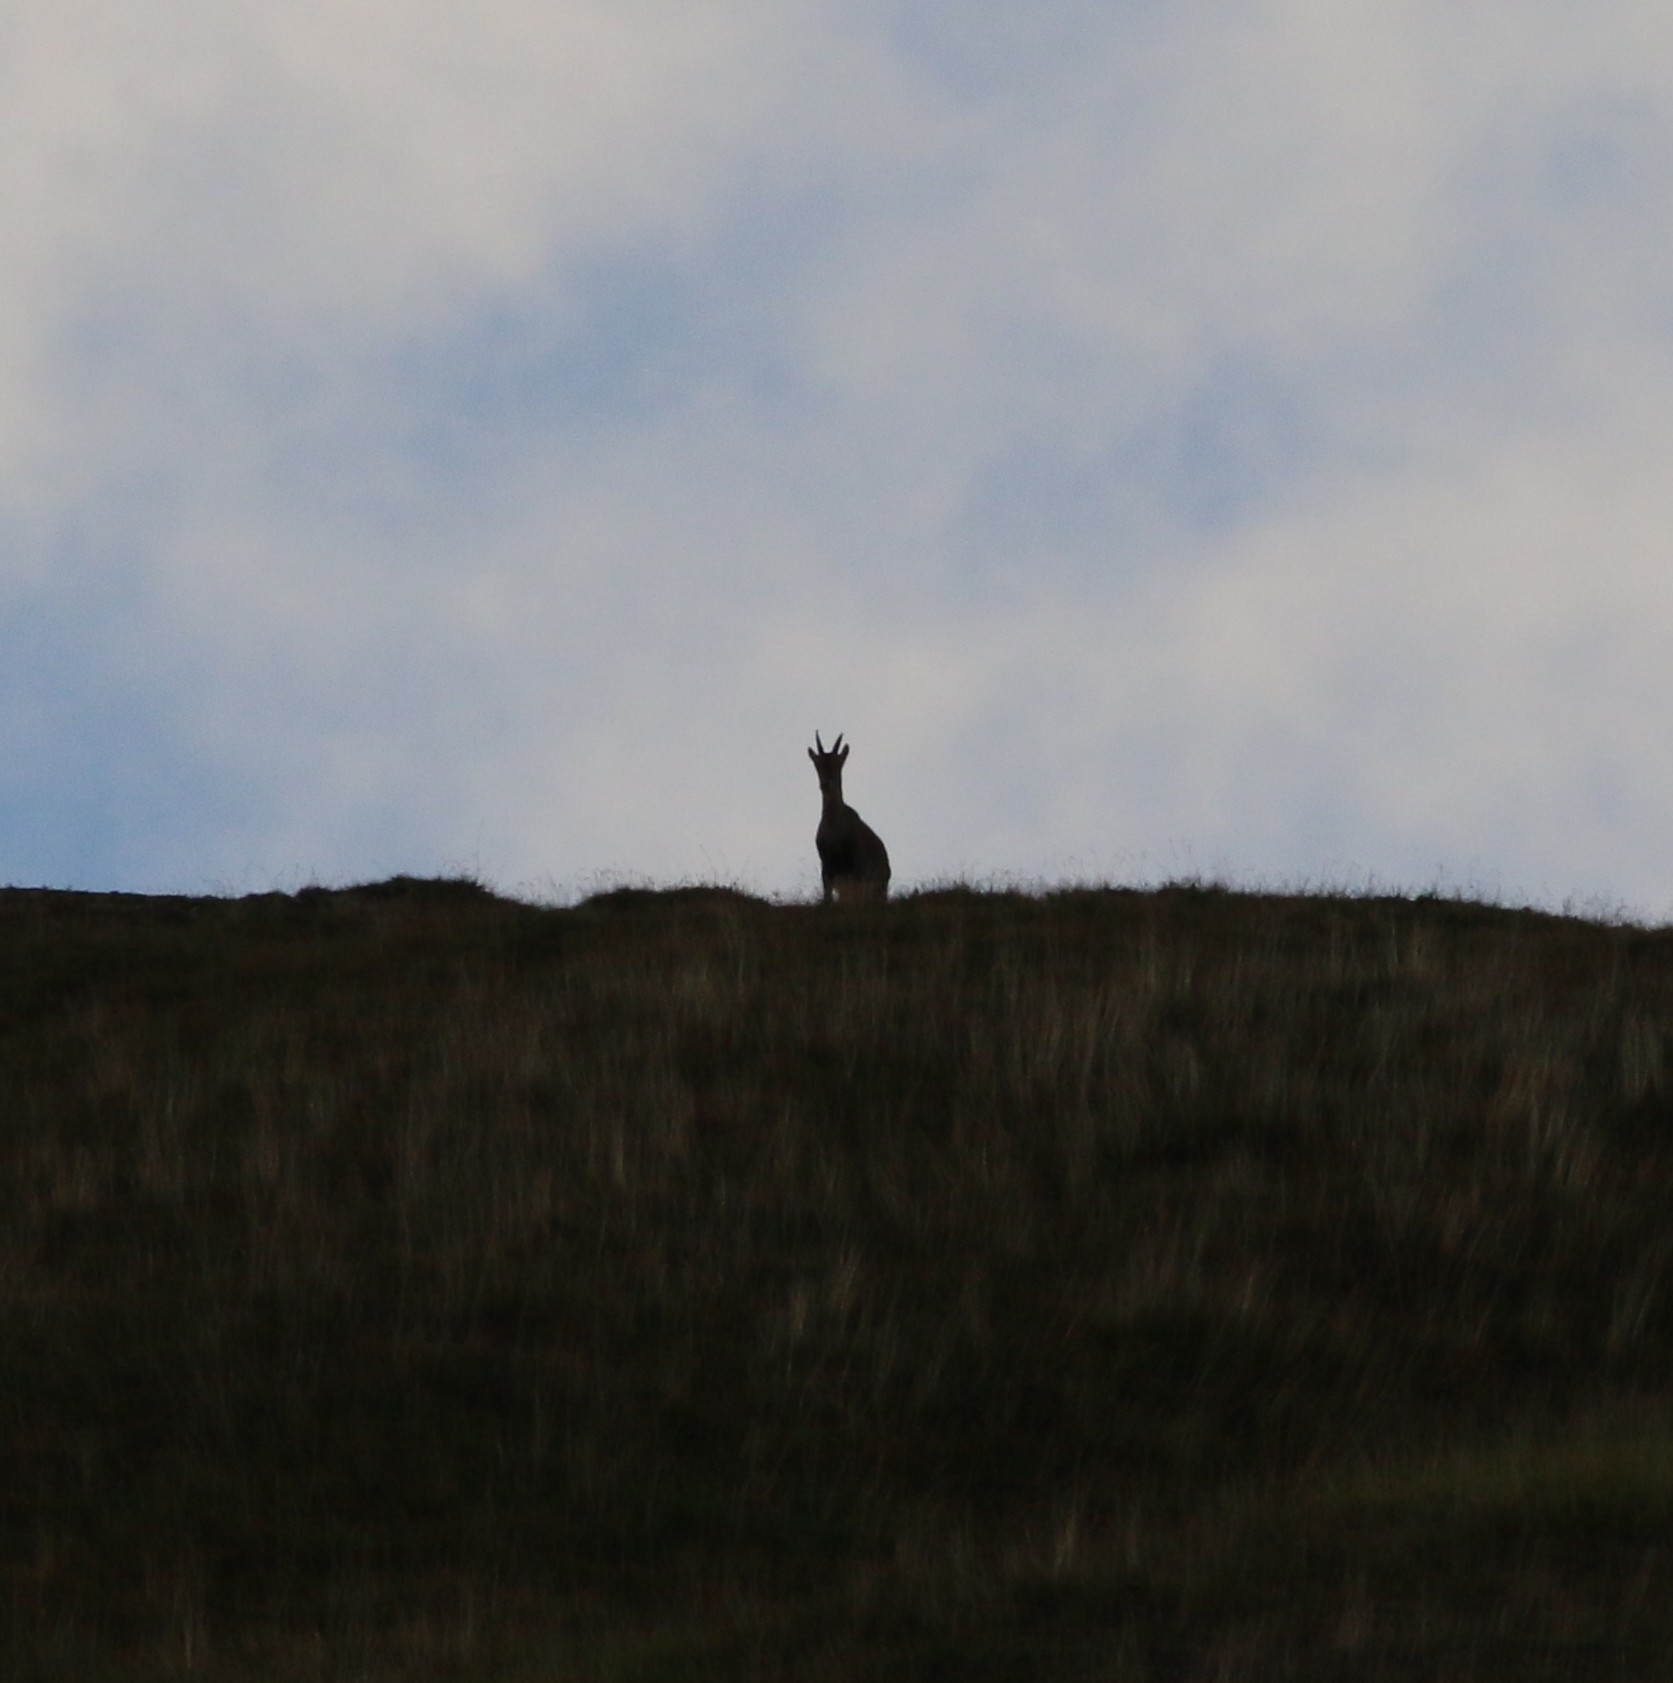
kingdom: Animalia
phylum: Chordata
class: Mammalia
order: Artiodactyla
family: Bovidae
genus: Capra
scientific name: Capra ibex
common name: Alpine ibex
